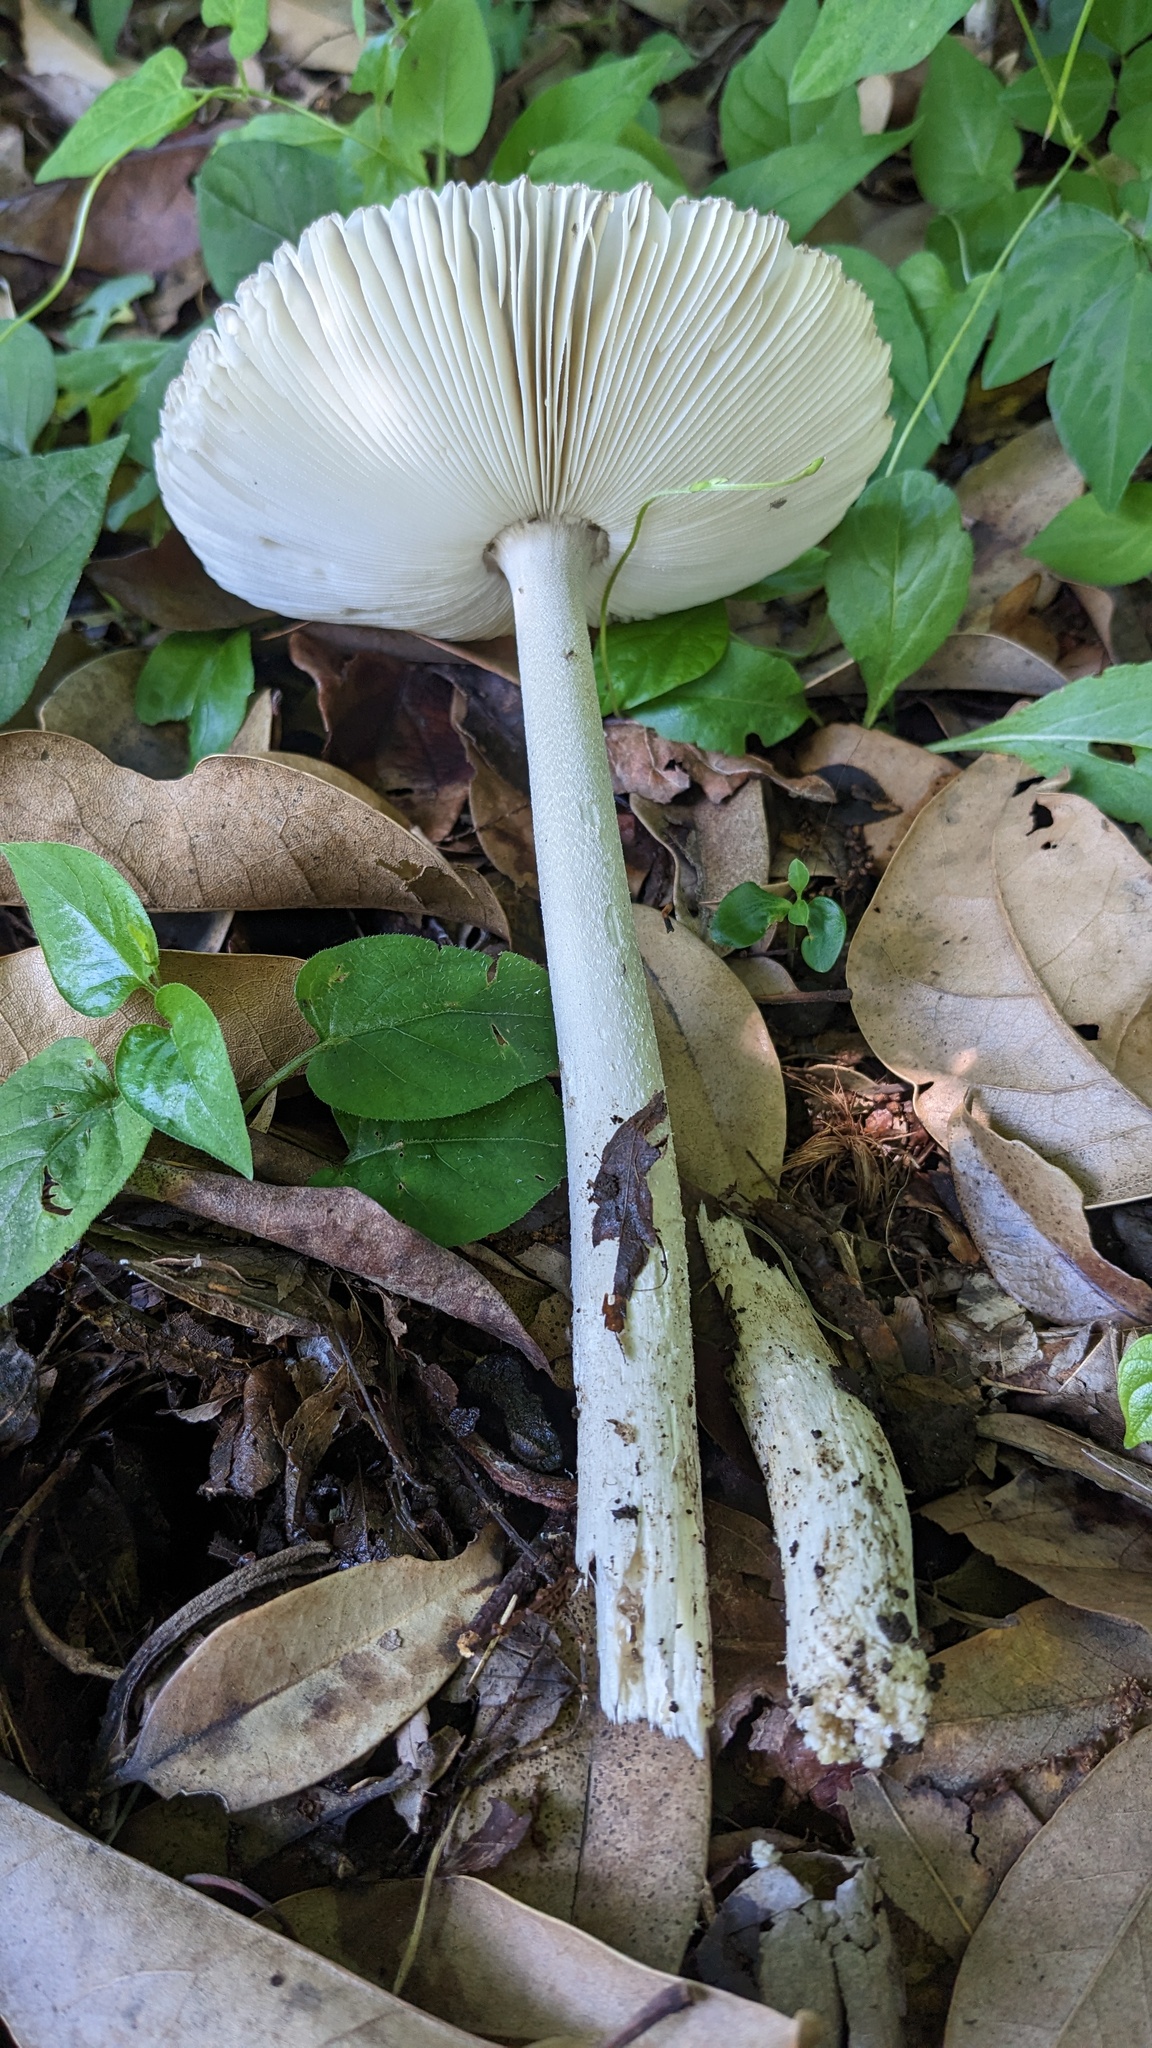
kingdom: Fungi
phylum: Basidiomycota
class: Agaricomycetes
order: Agaricales
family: Amanitaceae
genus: Amanita
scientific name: Amanita vaginata
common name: Grisette
